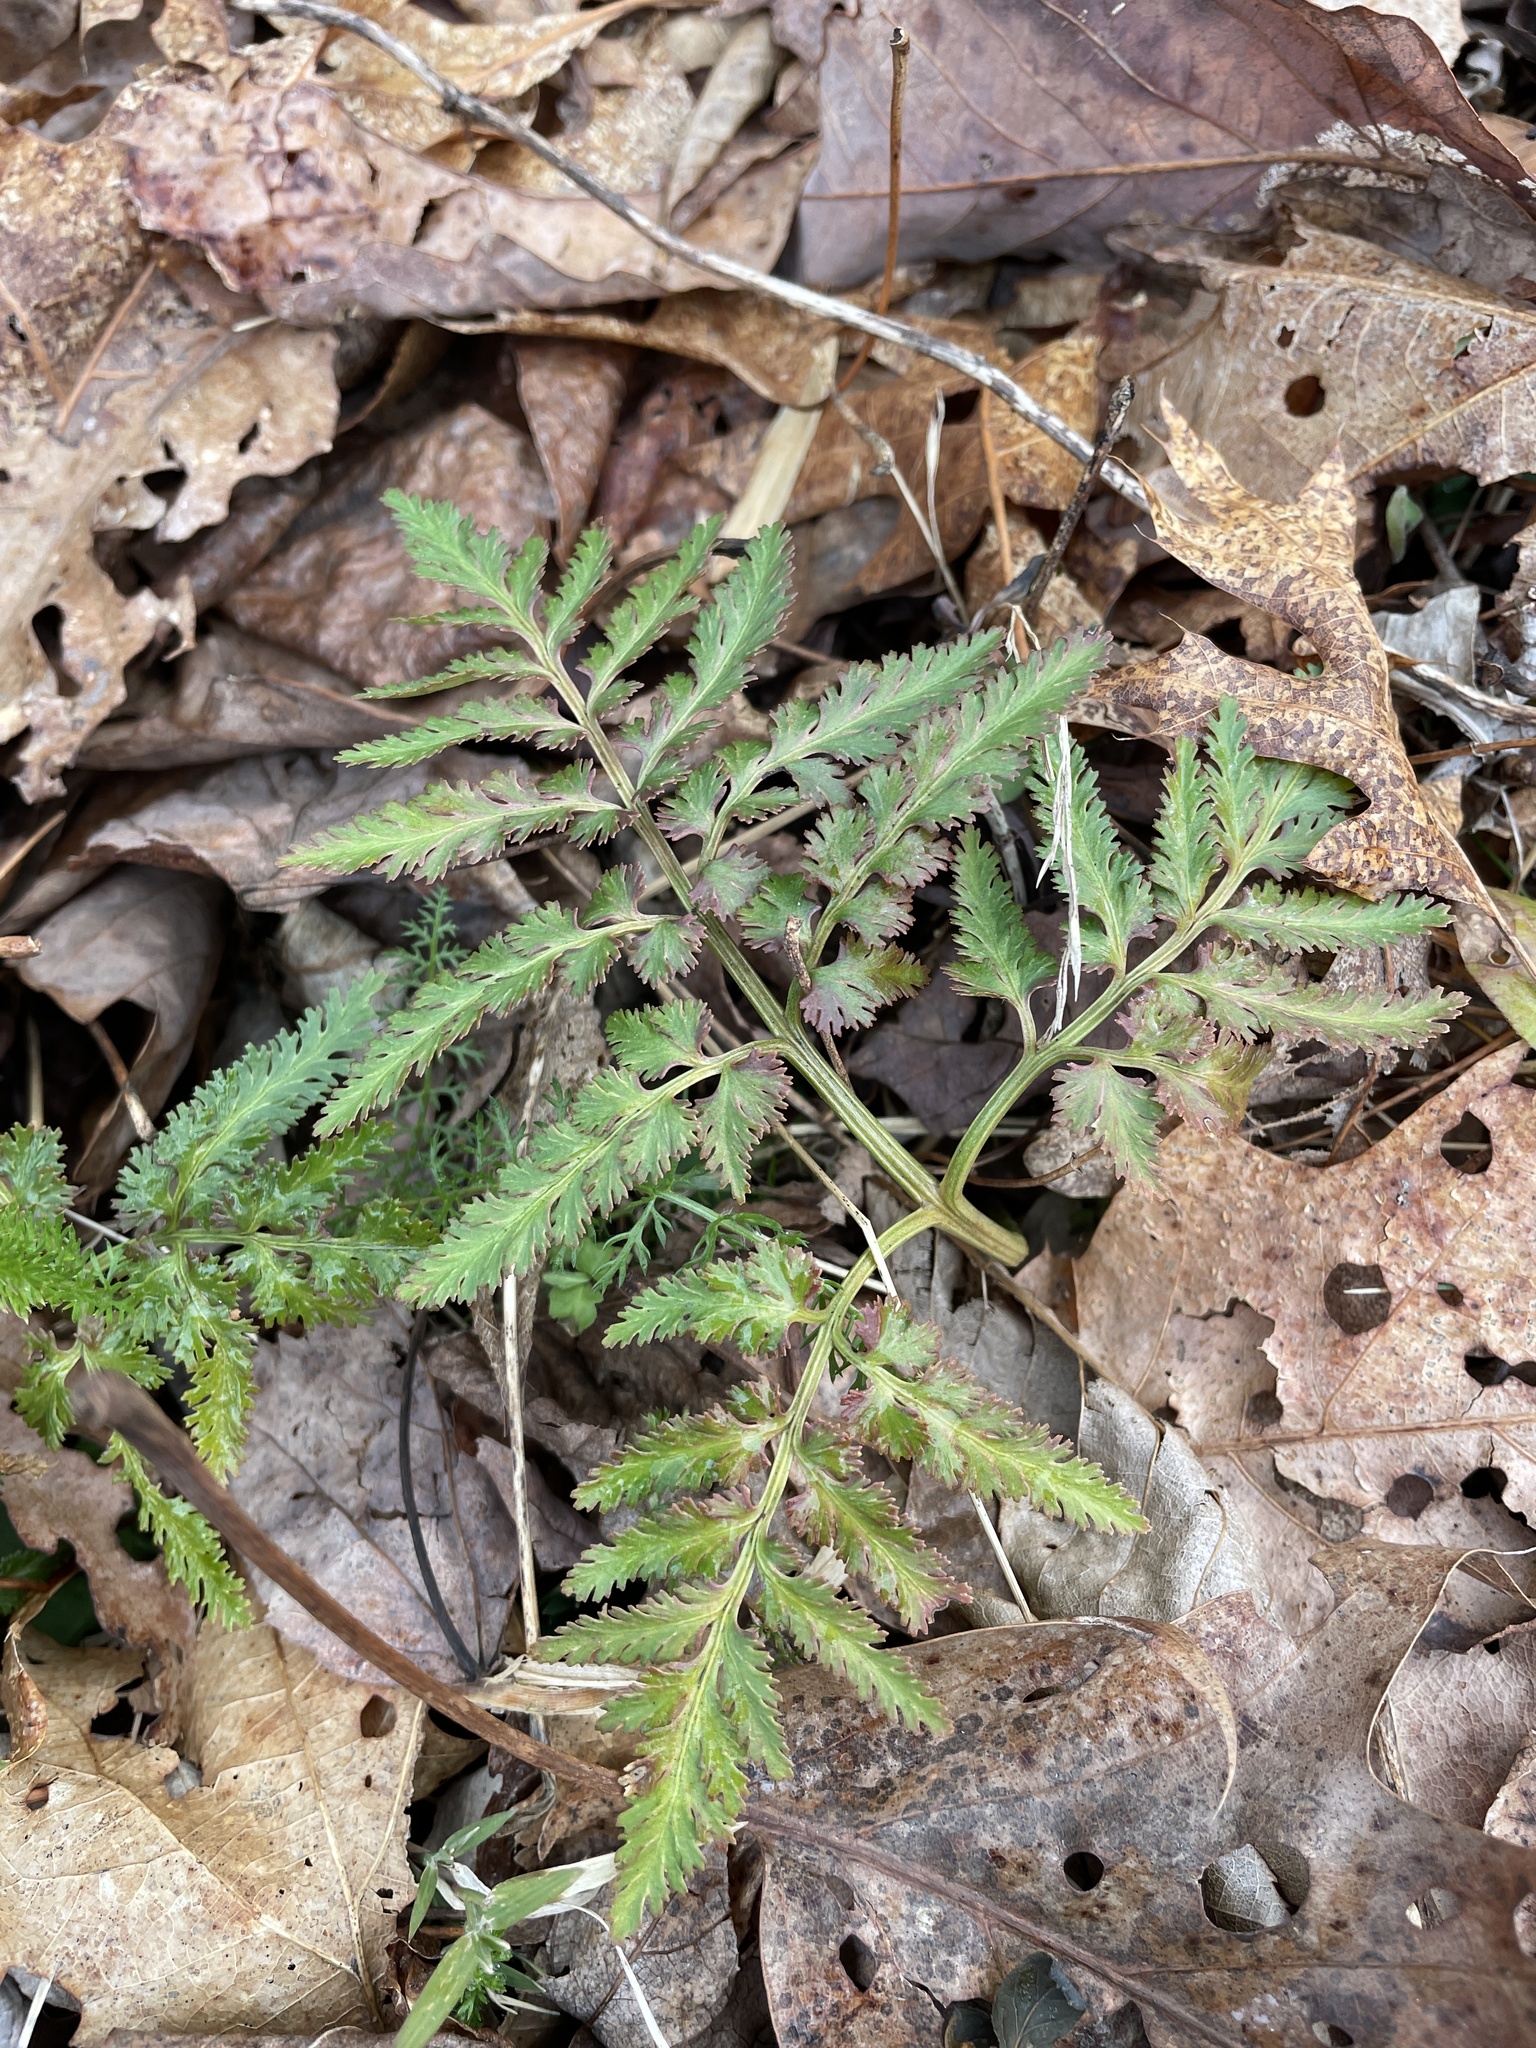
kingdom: Plantae
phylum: Tracheophyta
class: Polypodiopsida
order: Ophioglossales
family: Ophioglossaceae
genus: Sceptridium
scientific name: Sceptridium dissectum
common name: Cut-leaved grapefern
